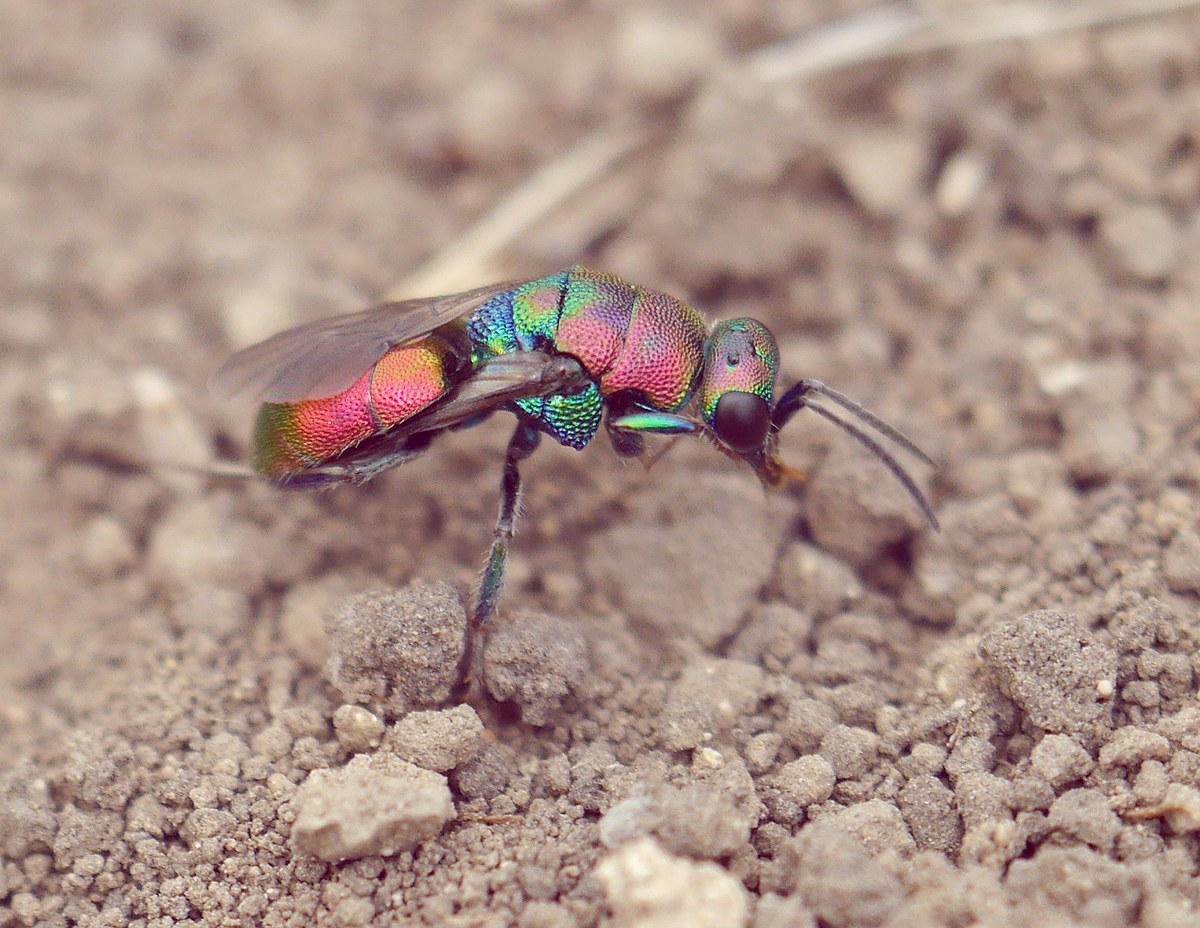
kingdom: Animalia
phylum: Arthropoda
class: Insecta
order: Hymenoptera
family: Chrysididae
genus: Hedychrum
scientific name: Hedychrum rutilans
